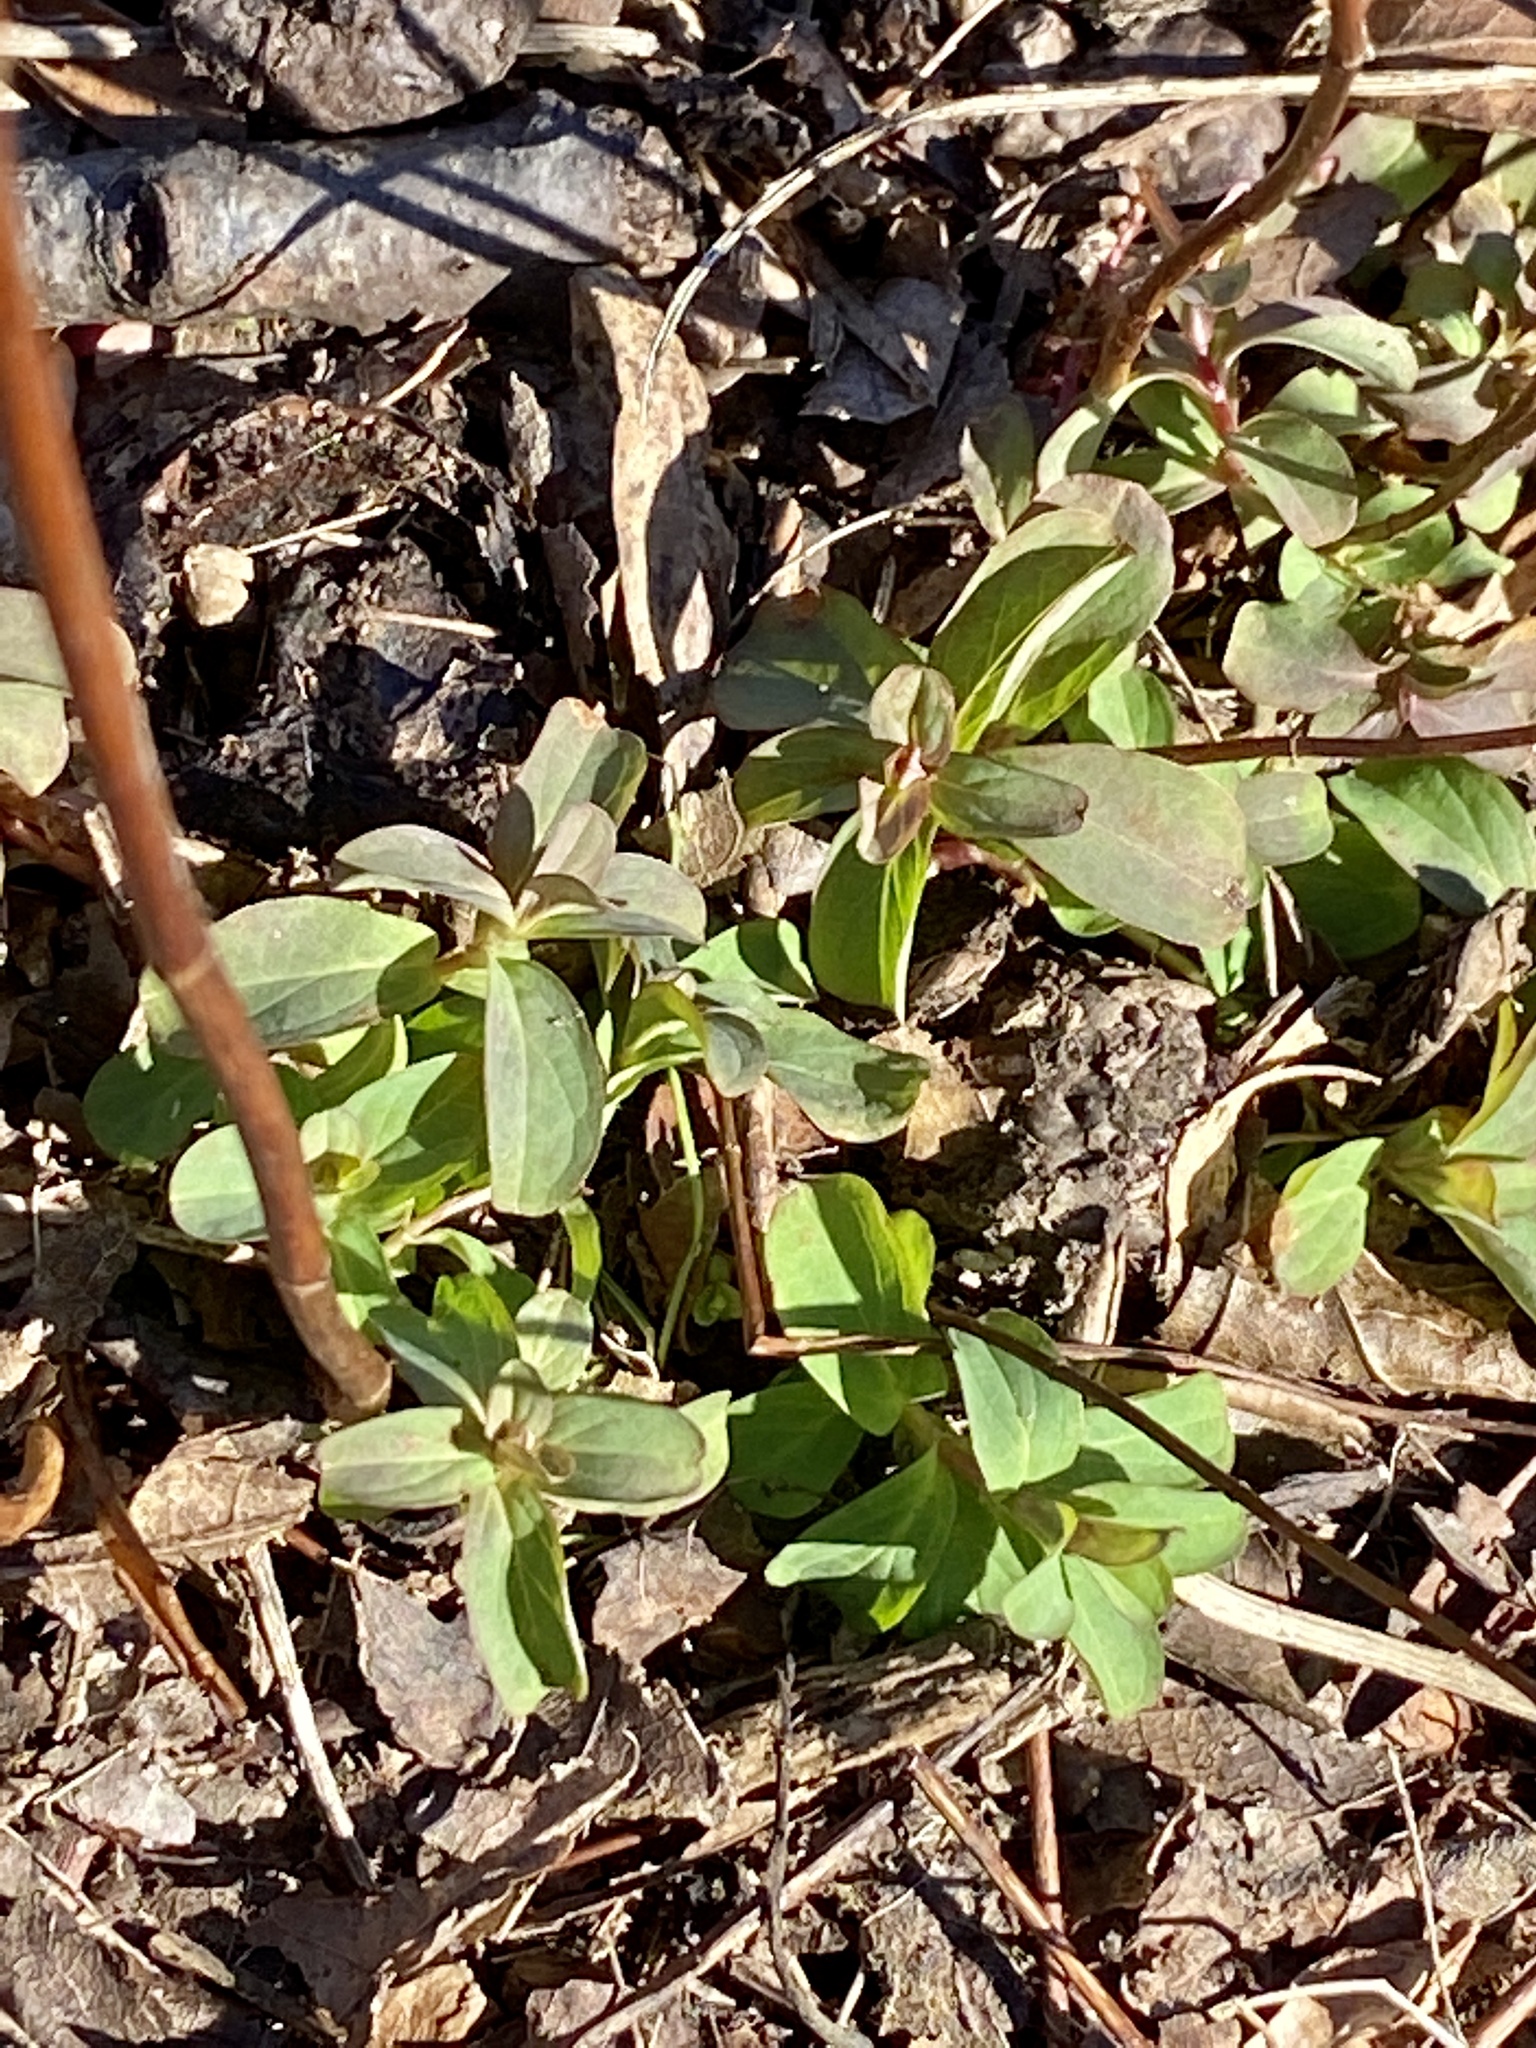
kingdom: Plantae
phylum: Tracheophyta
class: Magnoliopsida
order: Malpighiales
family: Hypericaceae
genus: Hypericum
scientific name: Hypericum punctatum
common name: Spotted st. john's-wort
